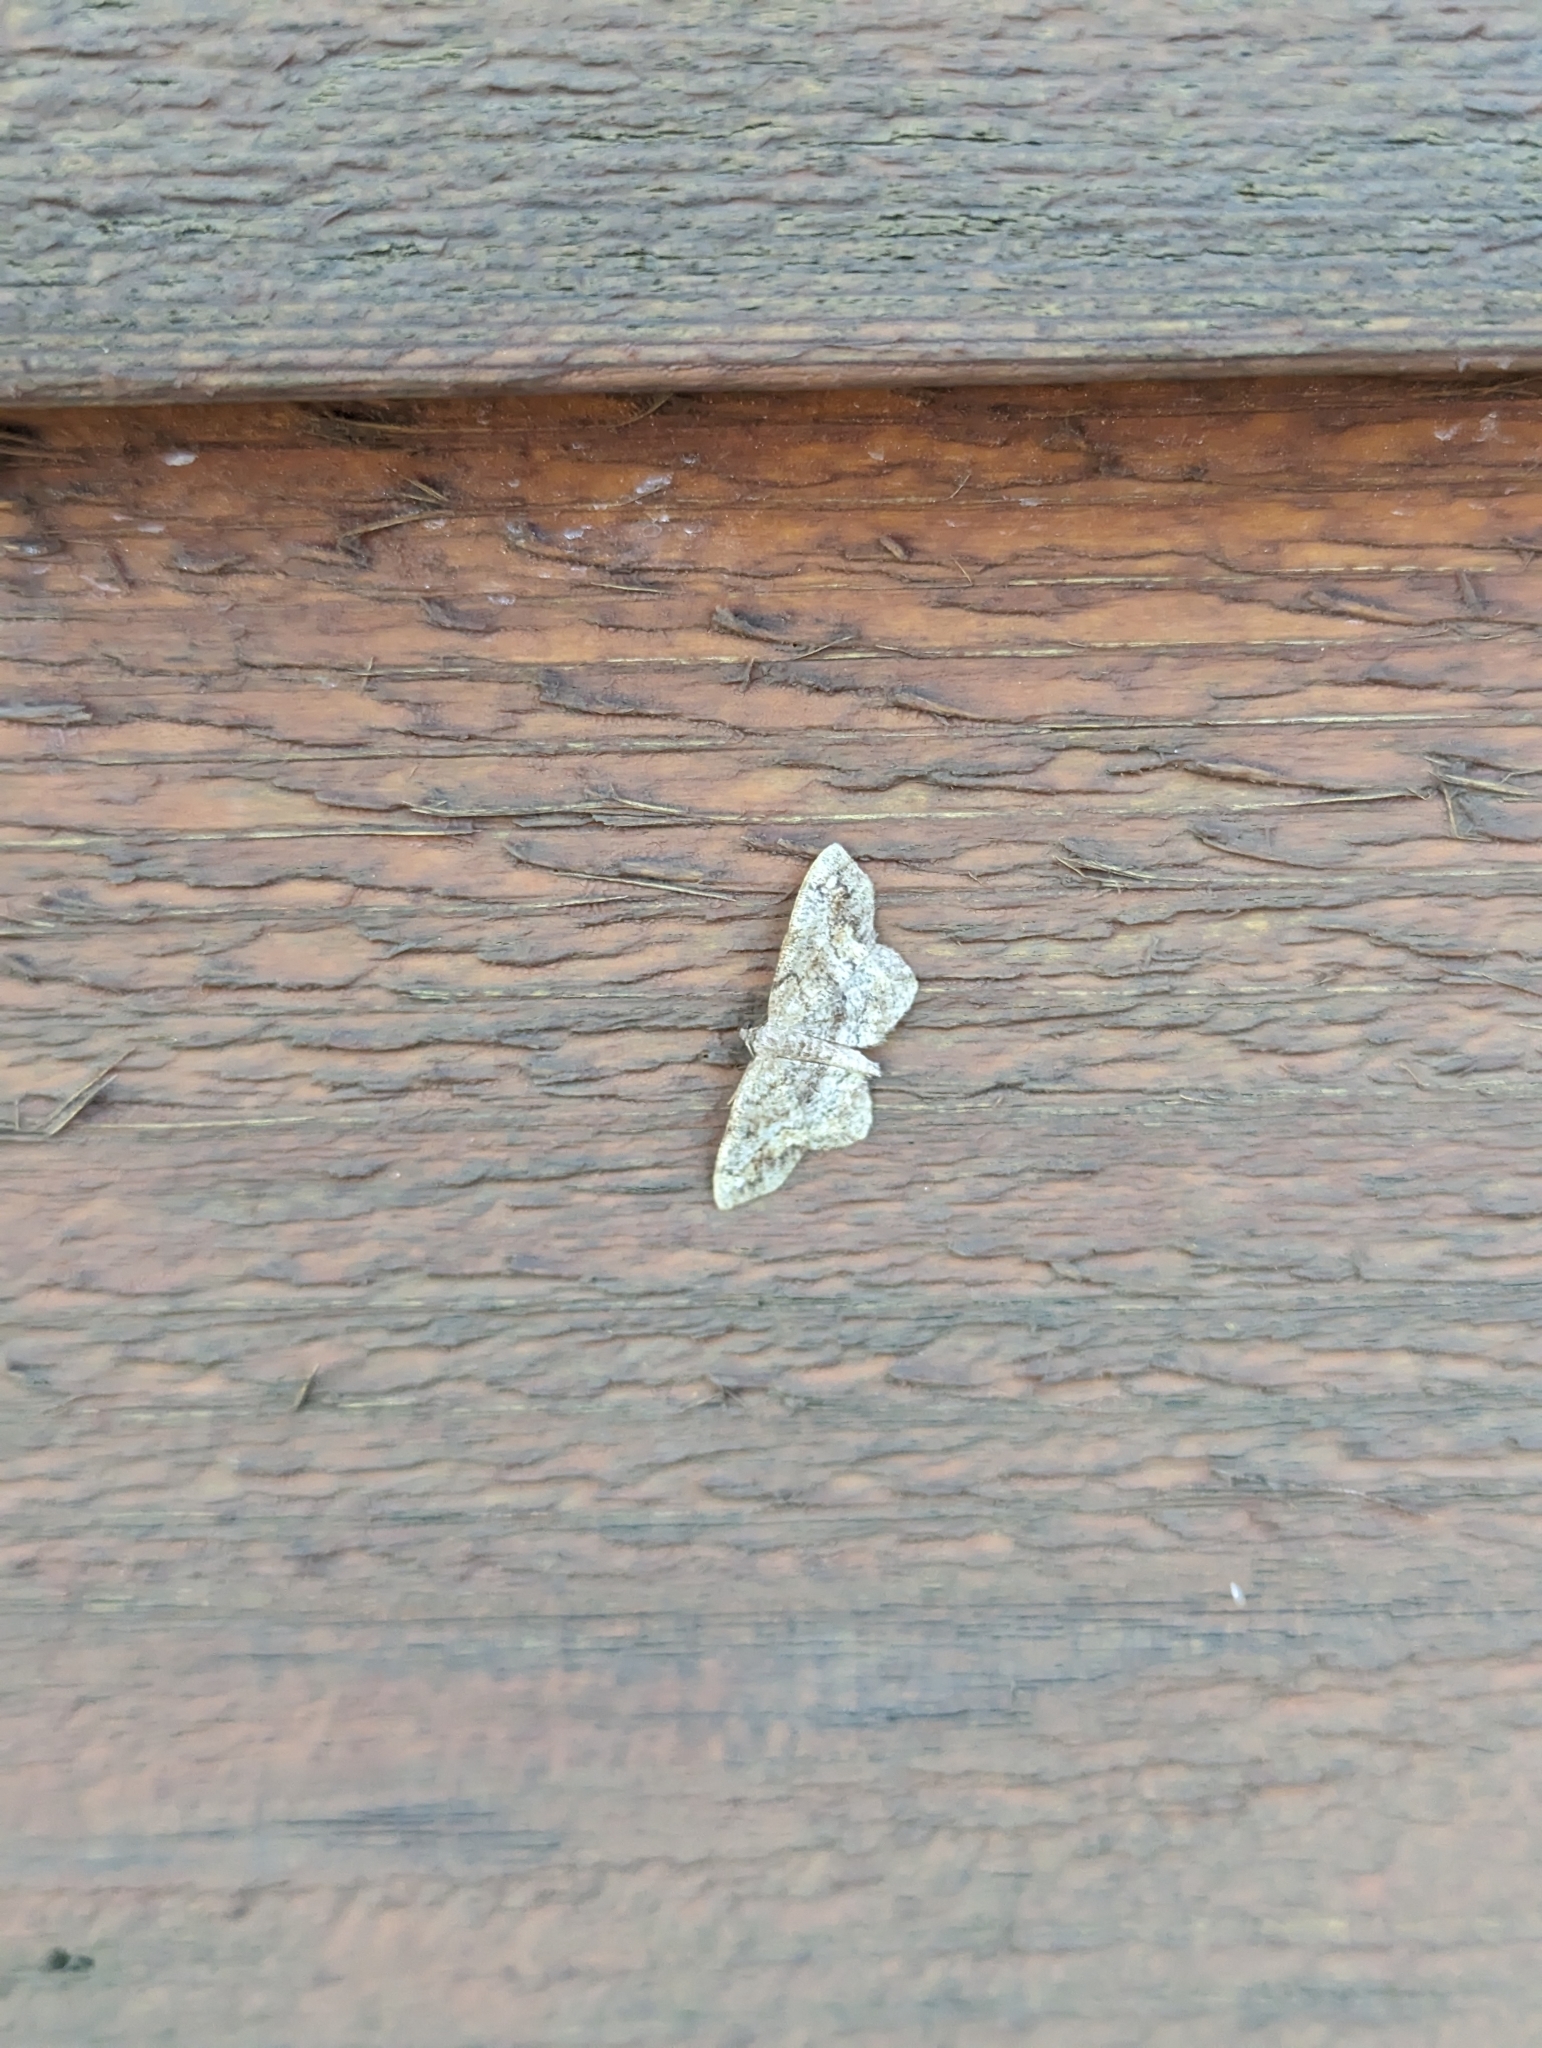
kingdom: Animalia
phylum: Arthropoda
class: Insecta
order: Lepidoptera
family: Geometridae
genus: Hypagyrtis
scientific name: Hypagyrtis unipunctata
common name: One-spotted variant
